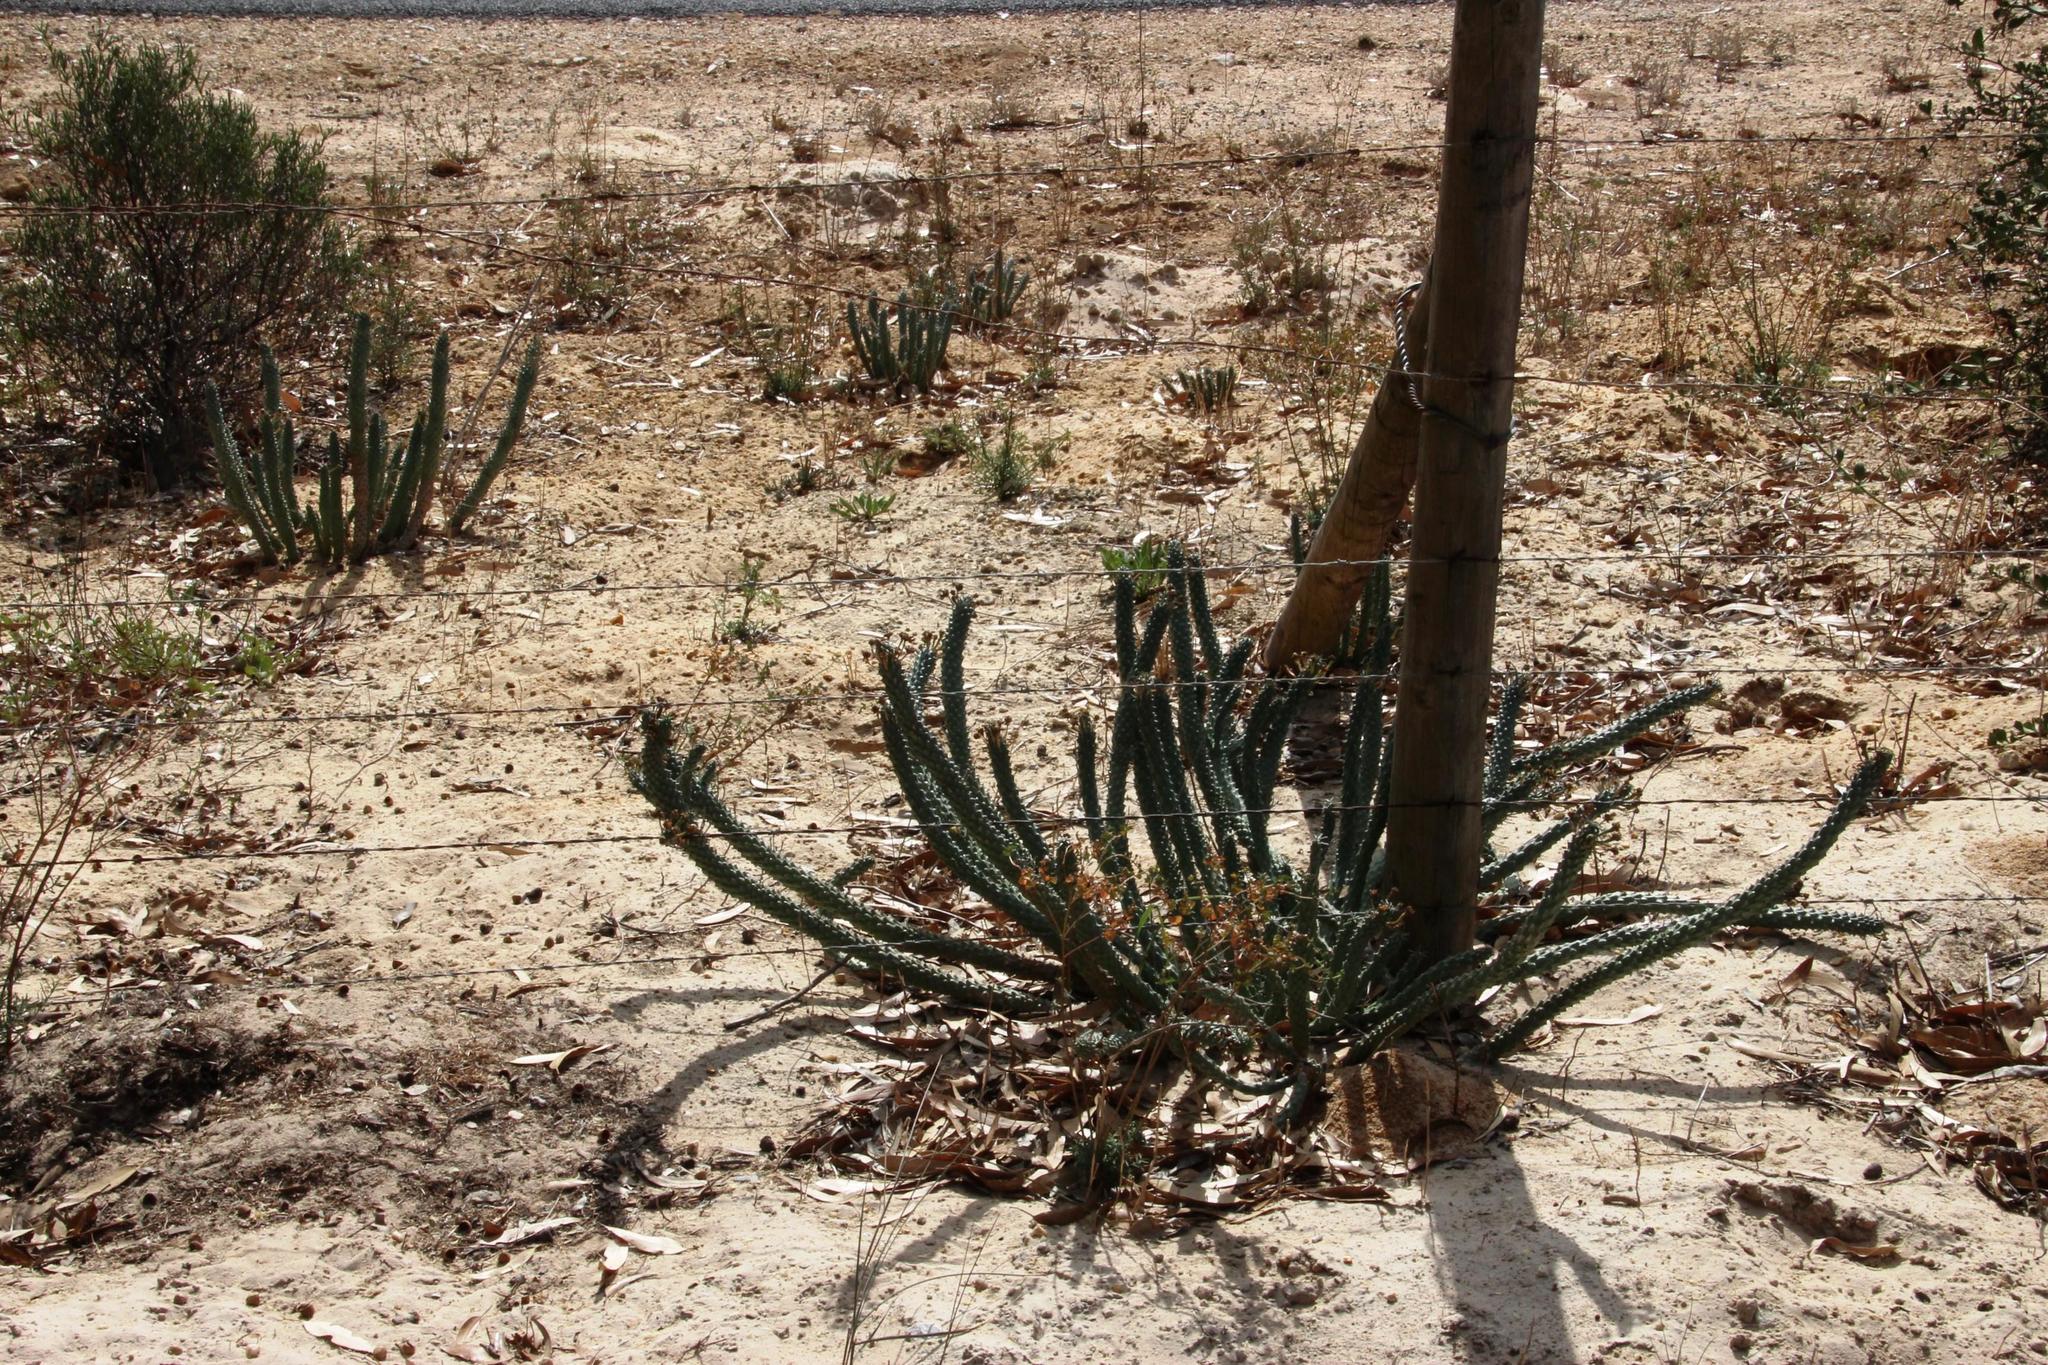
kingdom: Plantae
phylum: Tracheophyta
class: Magnoliopsida
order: Malpighiales
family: Euphorbiaceae
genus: Euphorbia
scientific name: Euphorbia caput-medusae
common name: Medusa's-head
